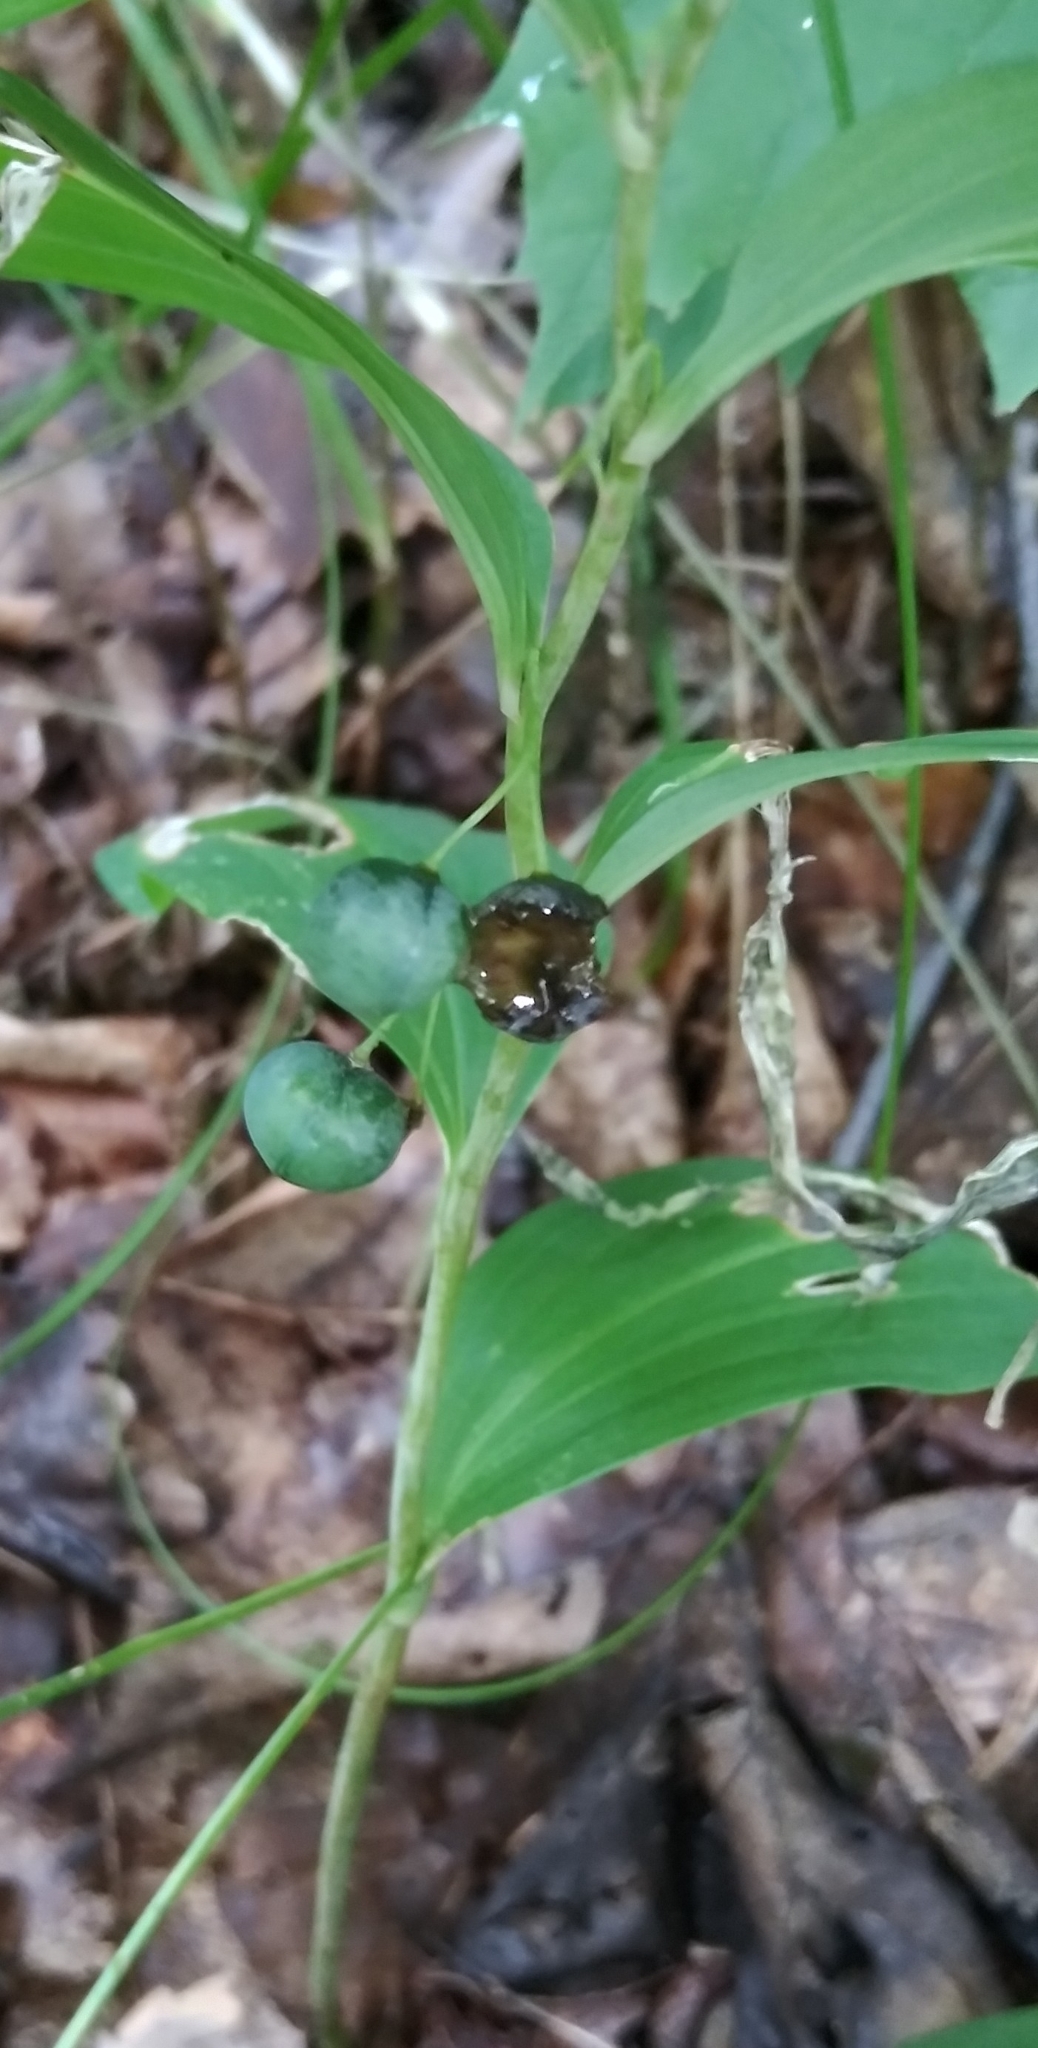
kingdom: Plantae
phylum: Tracheophyta
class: Liliopsida
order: Asparagales
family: Asparagaceae
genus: Polygonatum
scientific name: Polygonatum multiflorum
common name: Solomon's-seal
